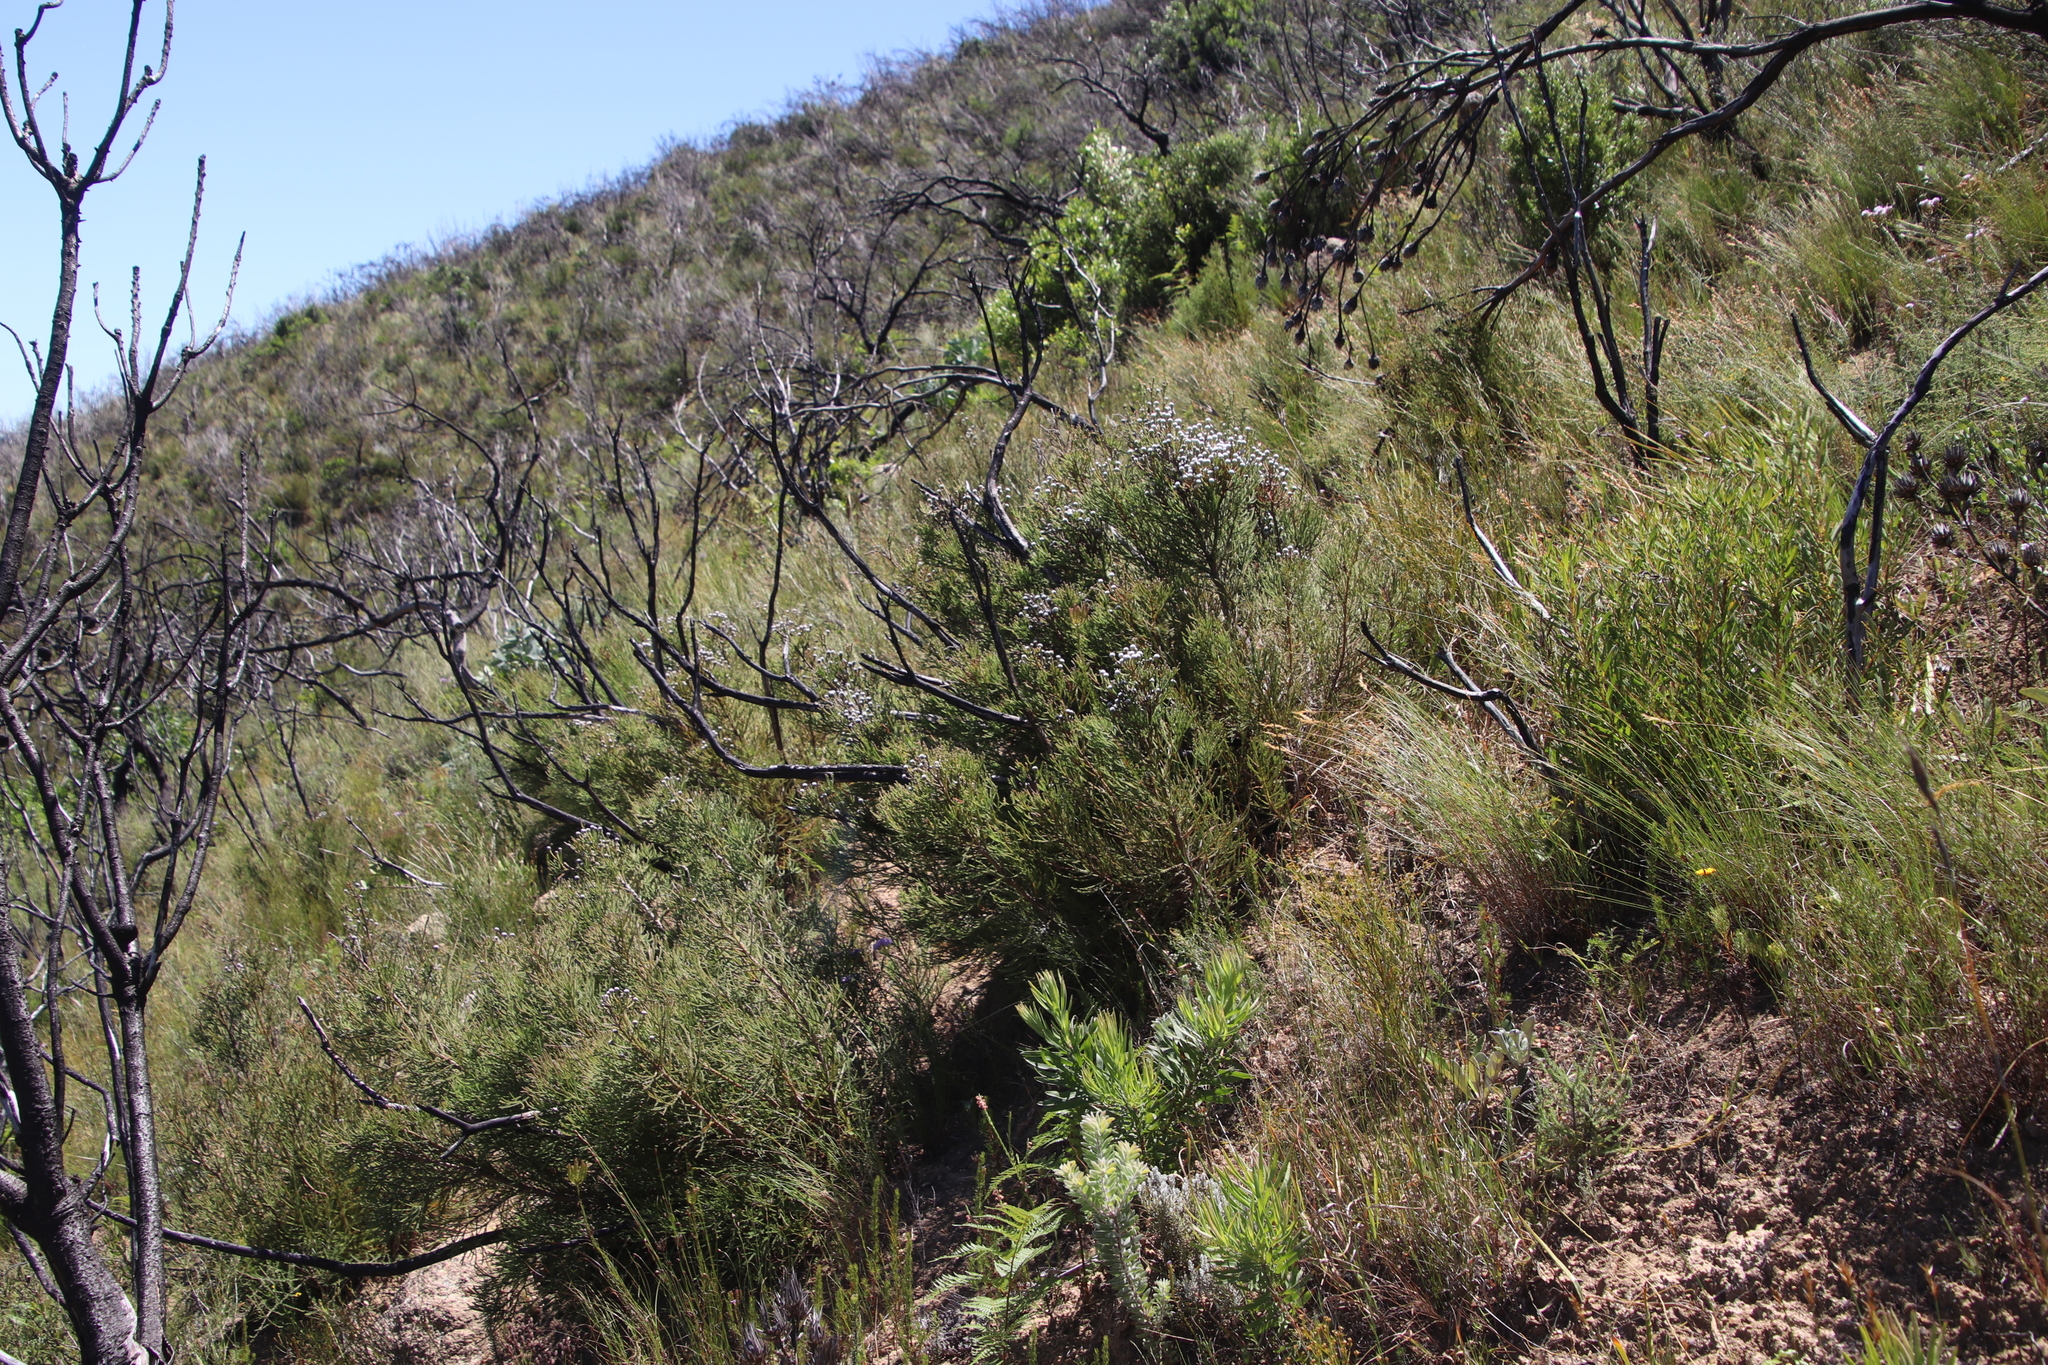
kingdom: Plantae
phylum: Tracheophyta
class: Magnoliopsida
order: Bruniales
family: Bruniaceae
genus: Brunia
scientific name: Brunia noduliflora
